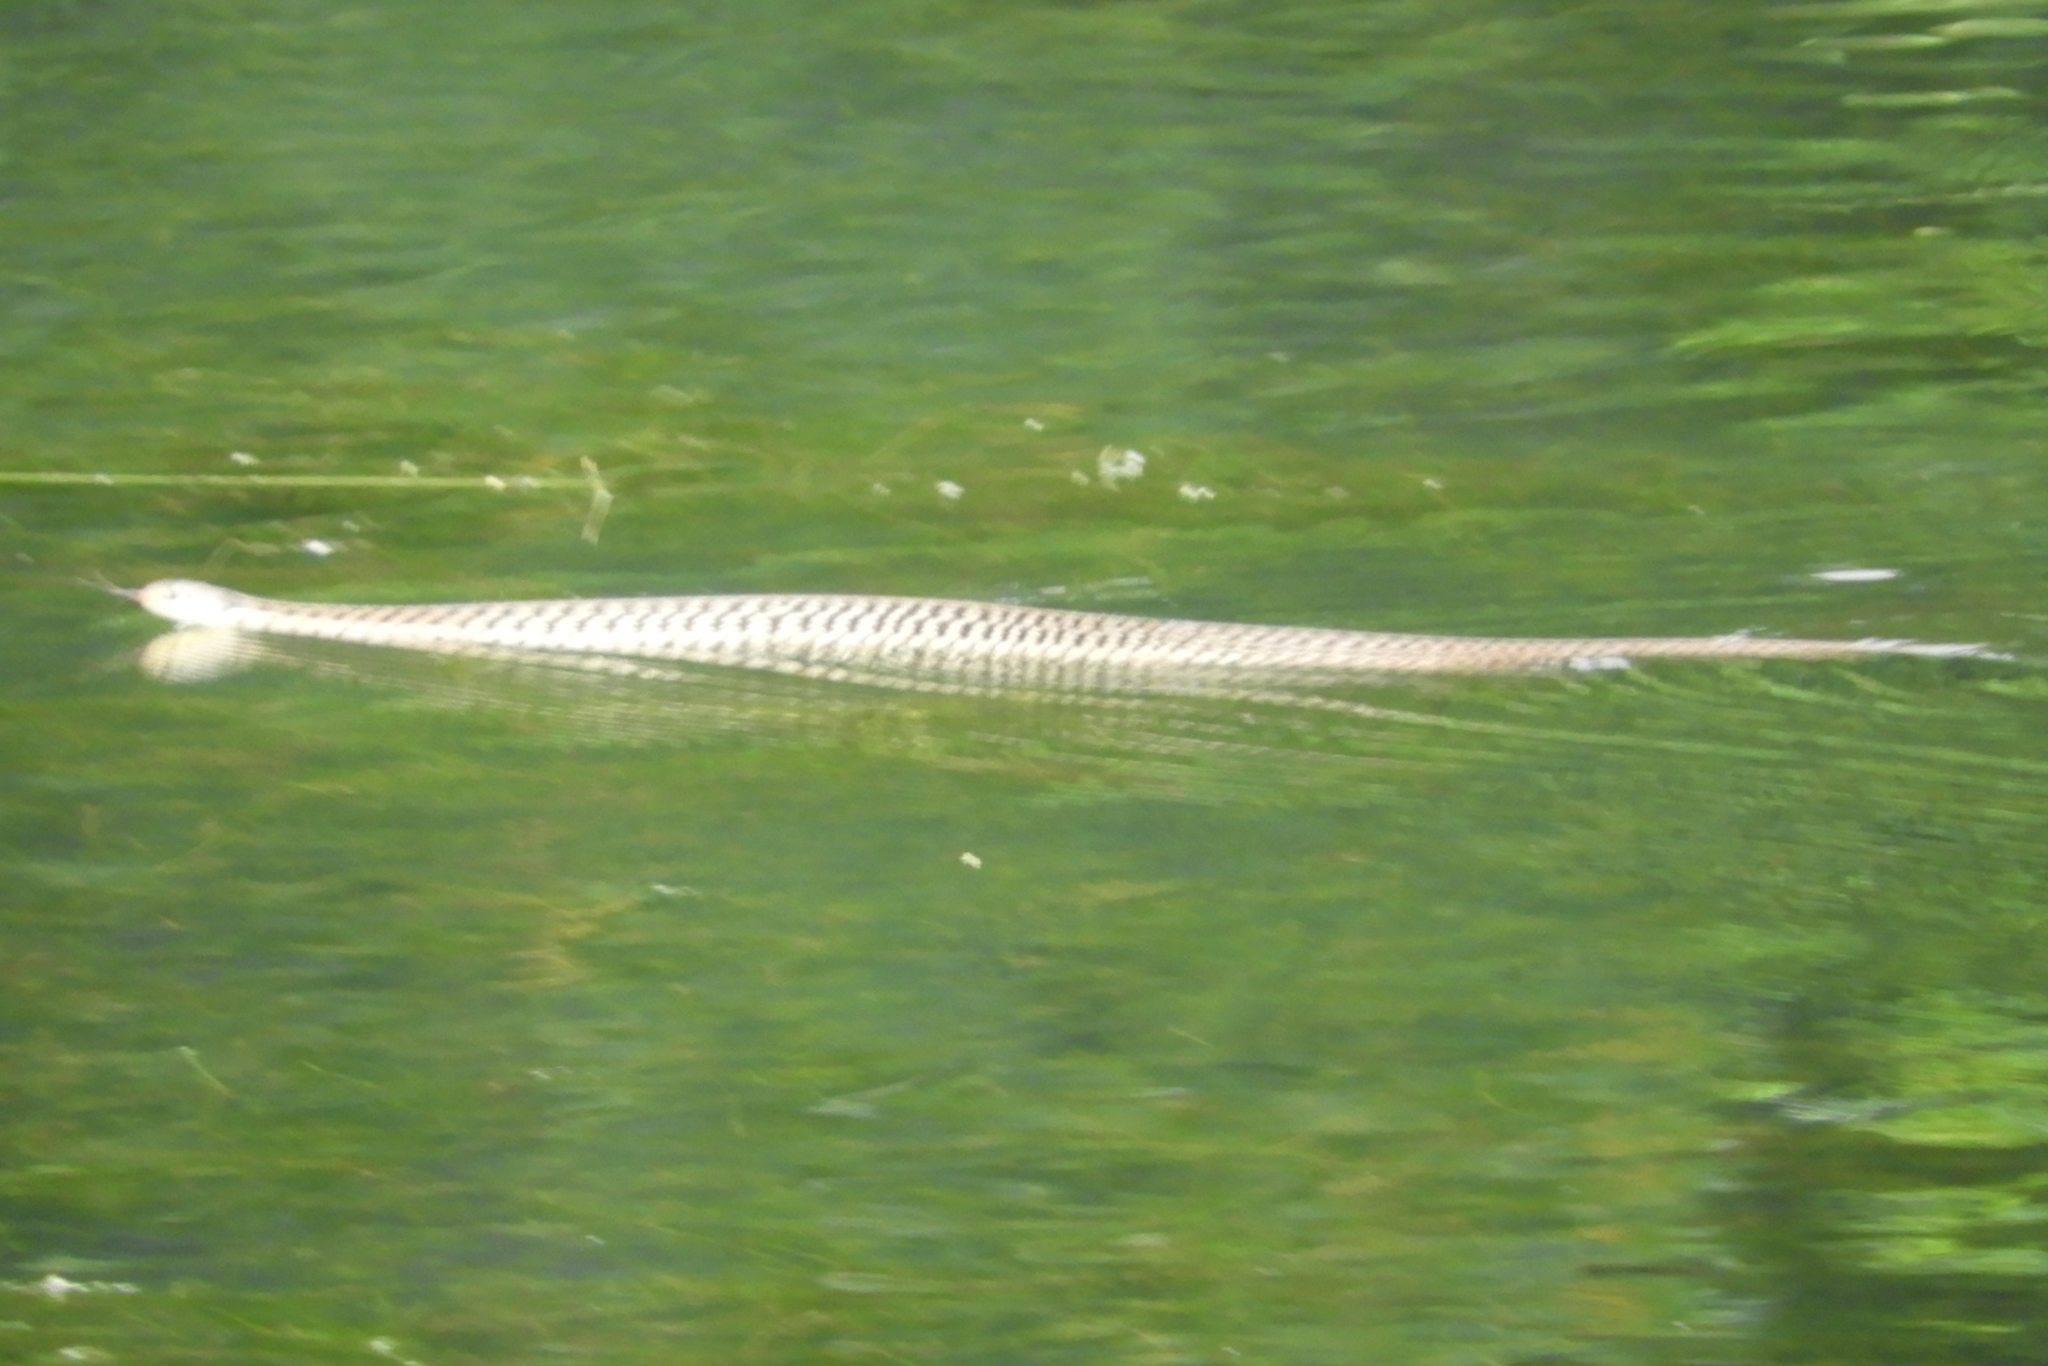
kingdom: Animalia
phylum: Chordata
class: Squamata
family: Colubridae
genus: Thamnophis
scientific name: Thamnophis sirtalis
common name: Common garter snake
